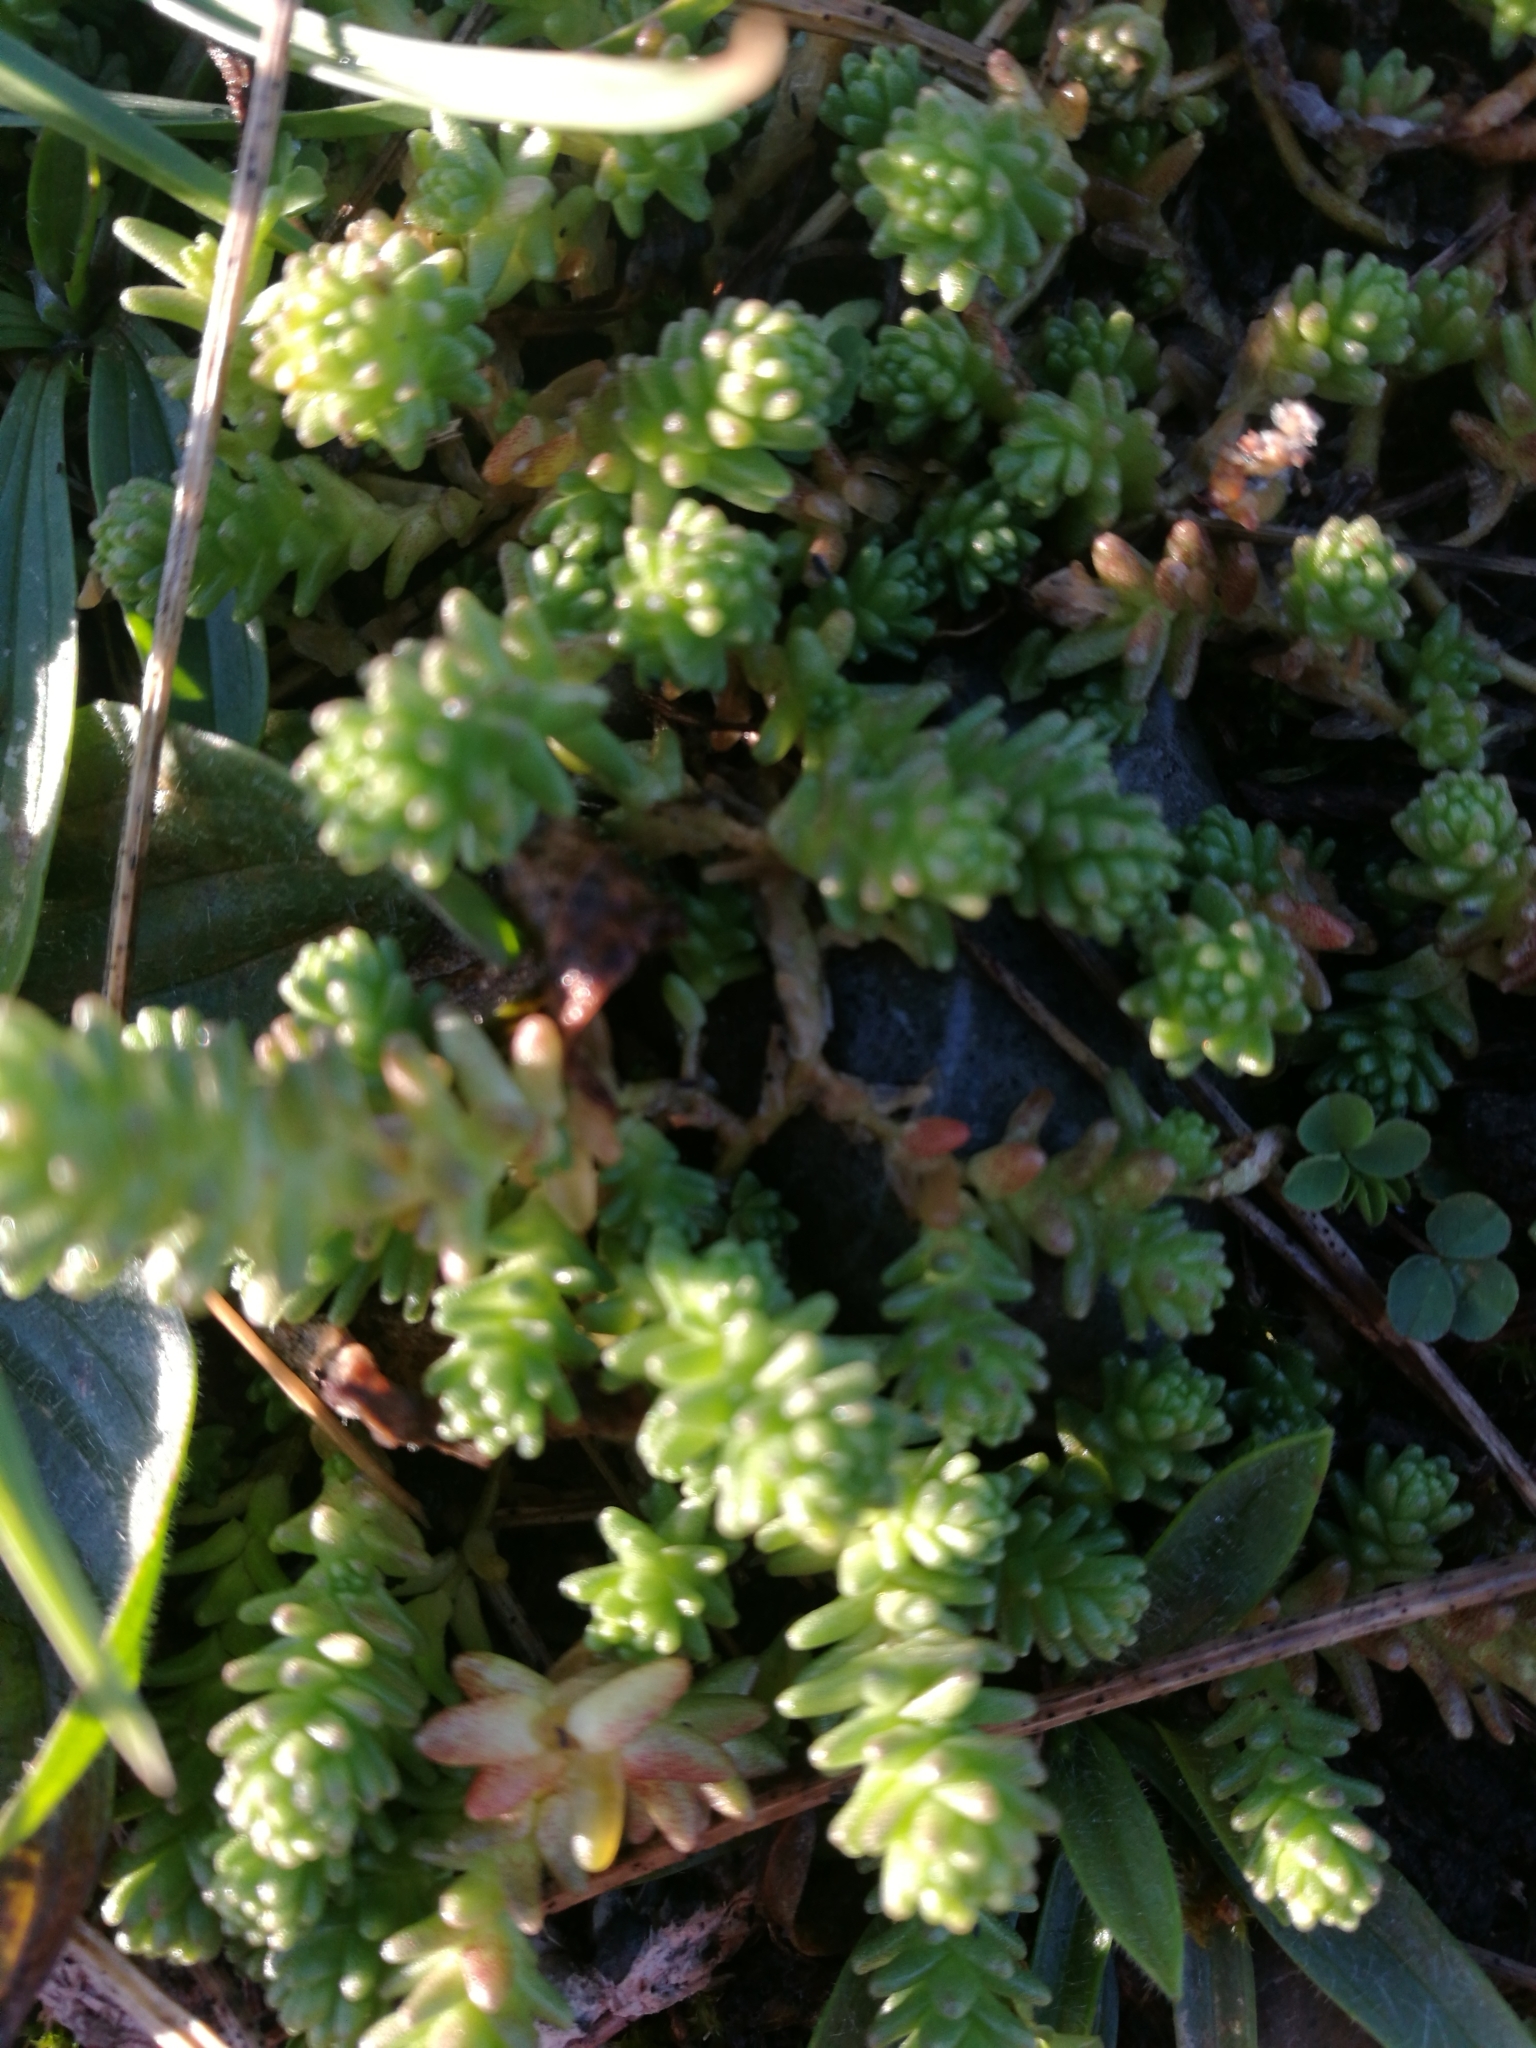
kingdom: Plantae
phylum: Tracheophyta
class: Magnoliopsida
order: Saxifragales
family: Crassulaceae
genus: Sedum
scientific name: Sedum acre
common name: Biting stonecrop
